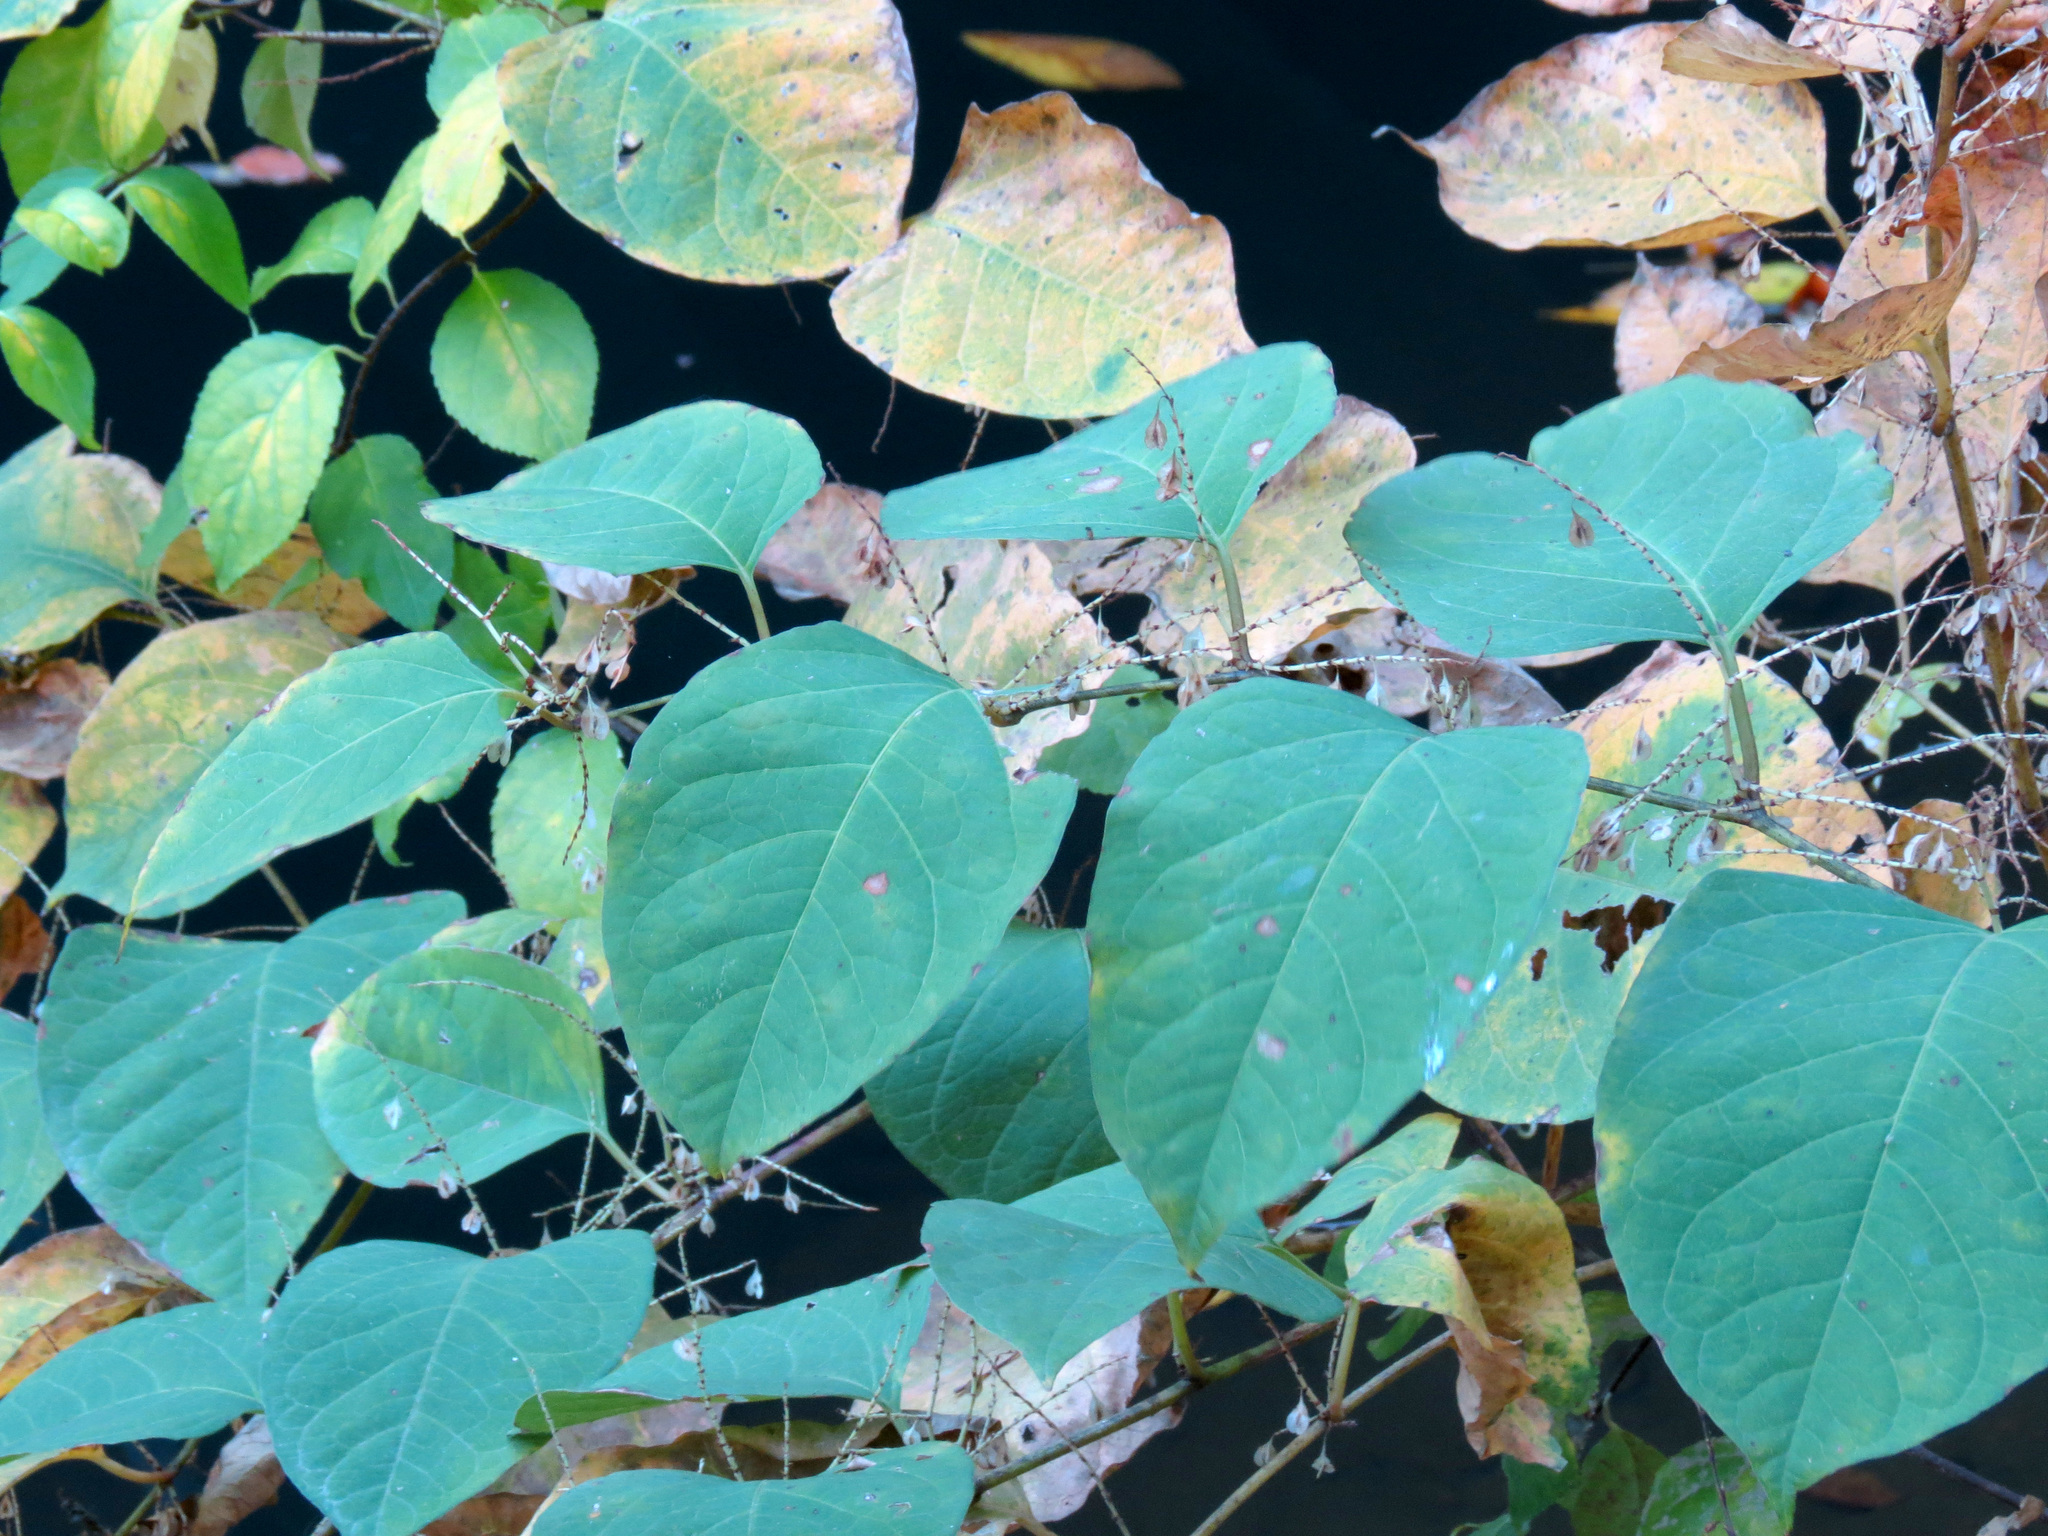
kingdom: Plantae
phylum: Tracheophyta
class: Magnoliopsida
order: Caryophyllales
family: Polygonaceae
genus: Reynoutria
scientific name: Reynoutria japonica
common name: Japanese knotweed
